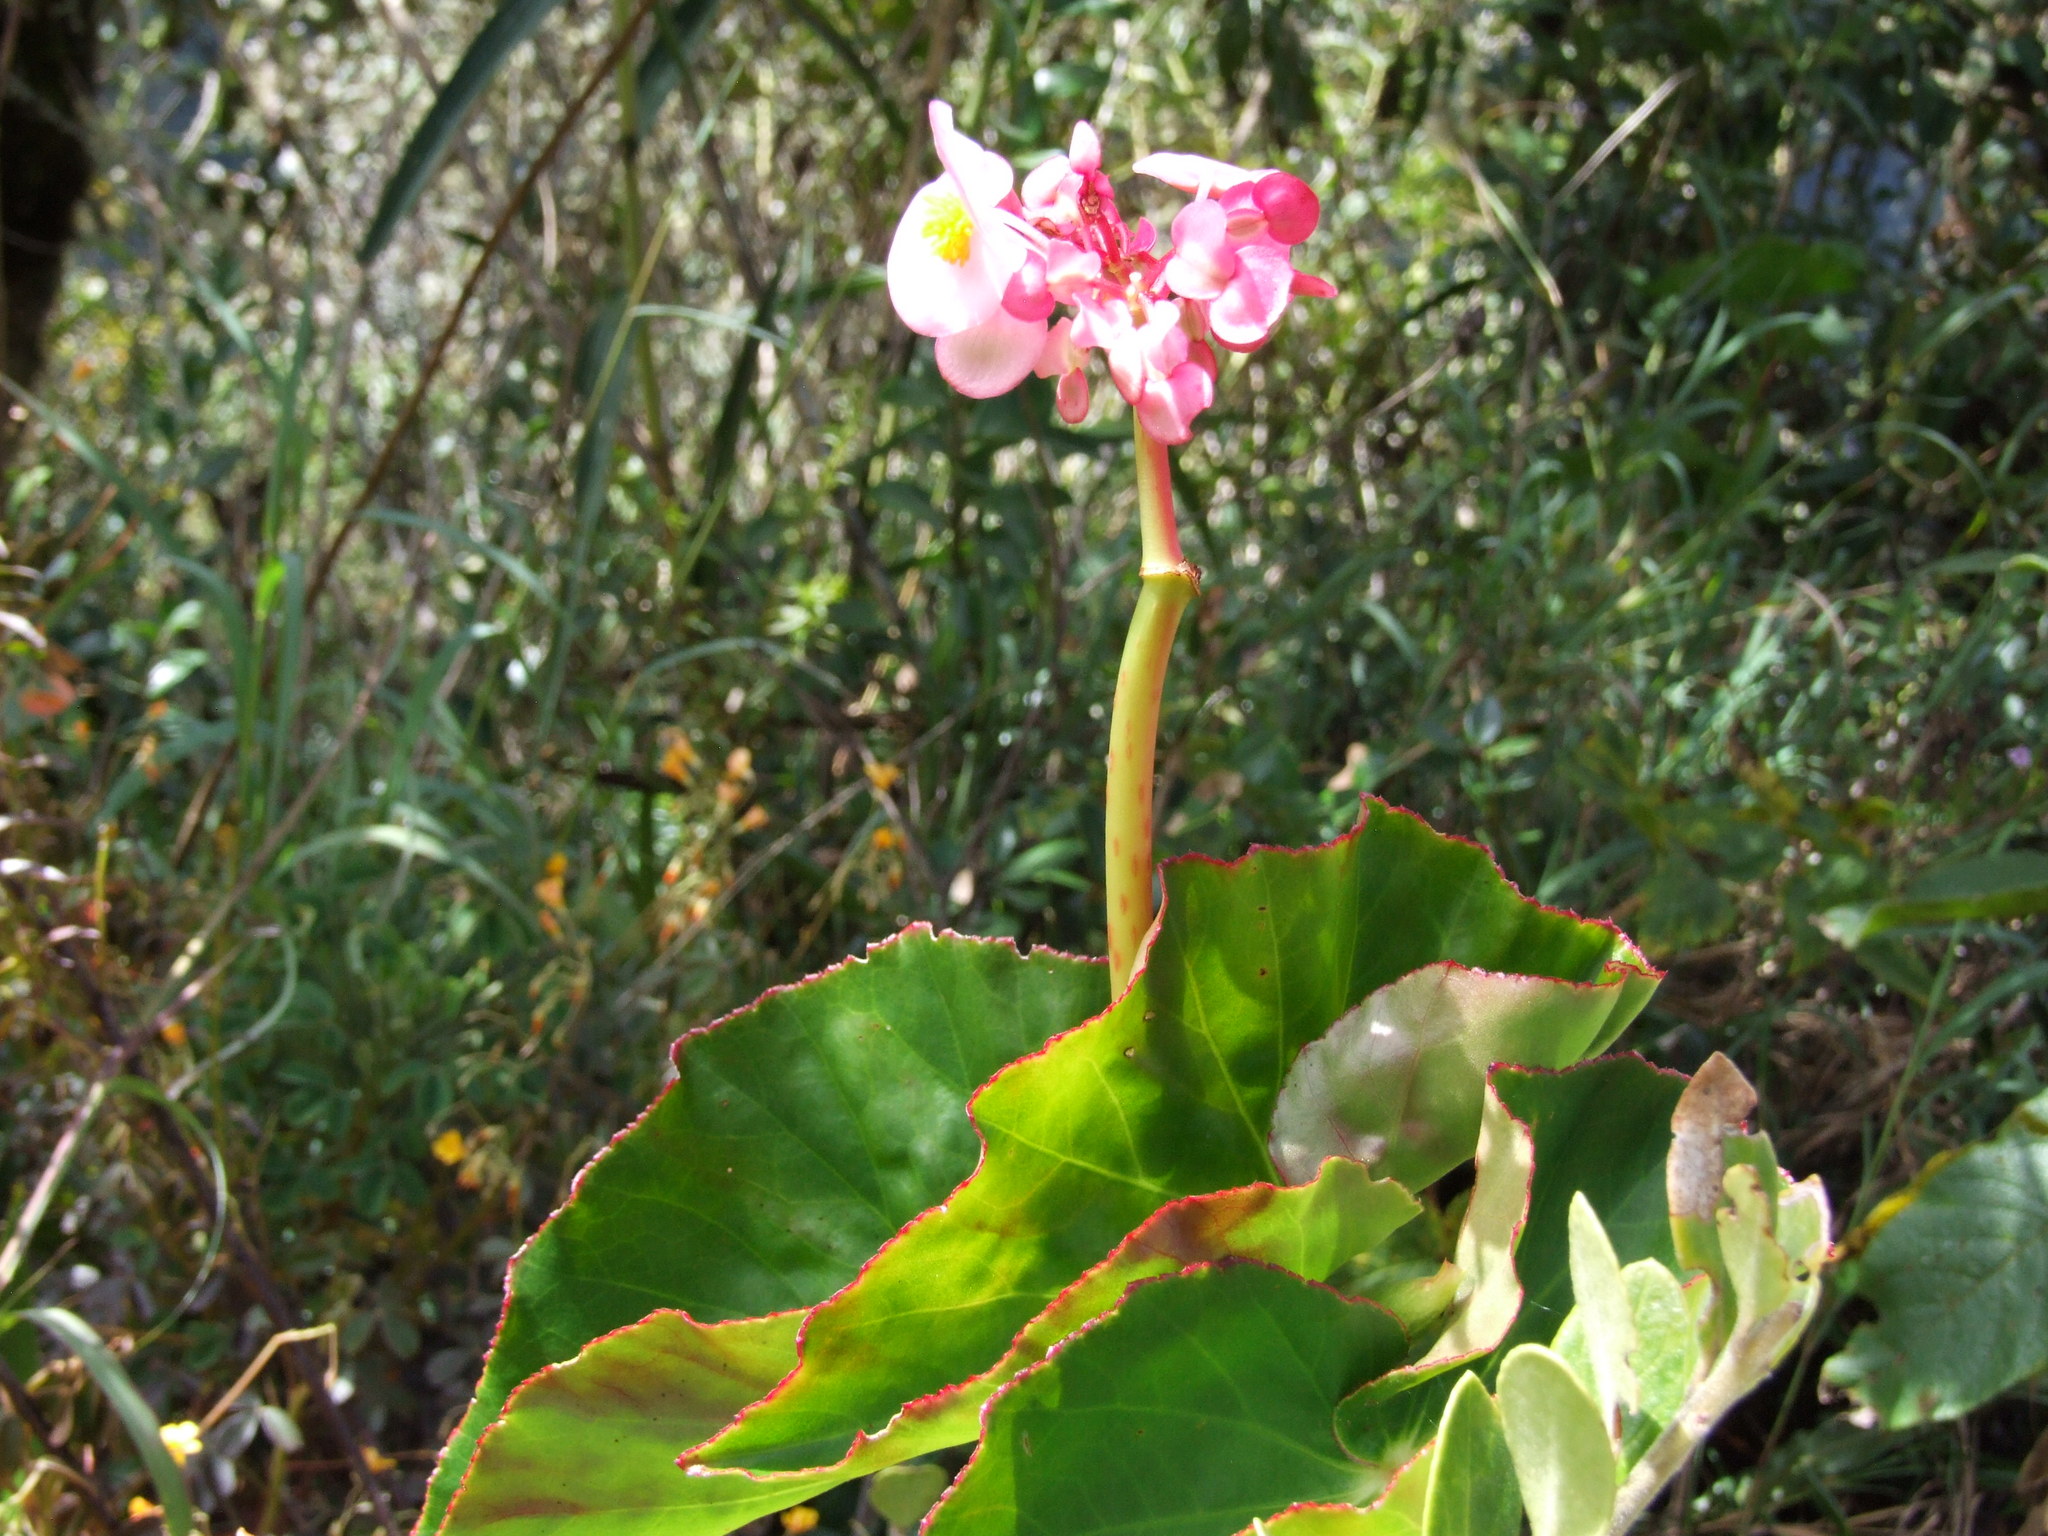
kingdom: Plantae
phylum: Tracheophyta
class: Magnoliopsida
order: Cucurbitales
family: Begoniaceae
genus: Begonia
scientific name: Begonia bracteosa
